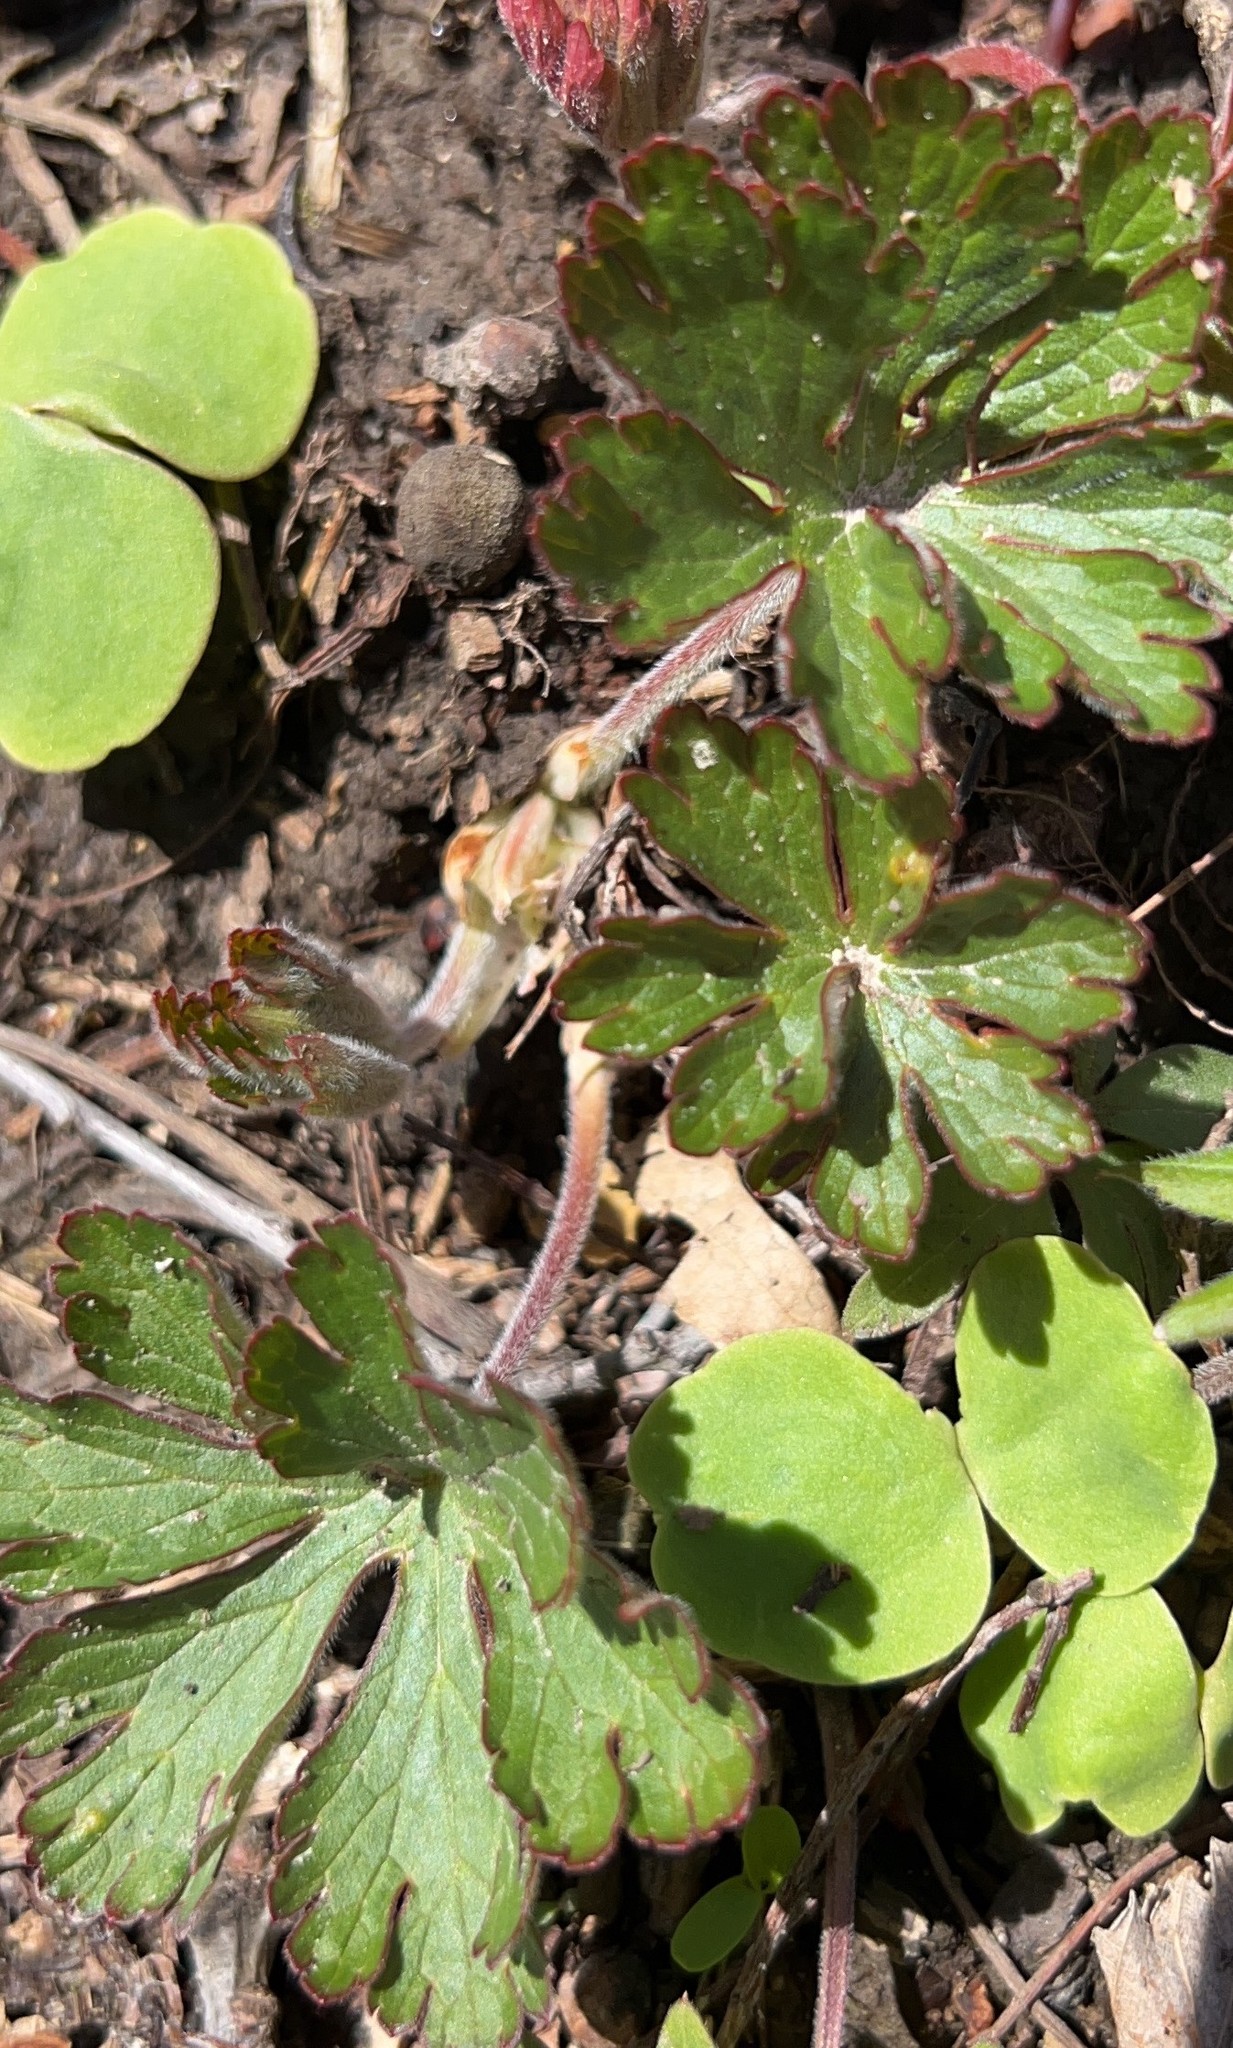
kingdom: Plantae
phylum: Tracheophyta
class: Magnoliopsida
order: Geraniales
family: Geraniaceae
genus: Geranium
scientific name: Geranium maculatum
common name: Spotted geranium
